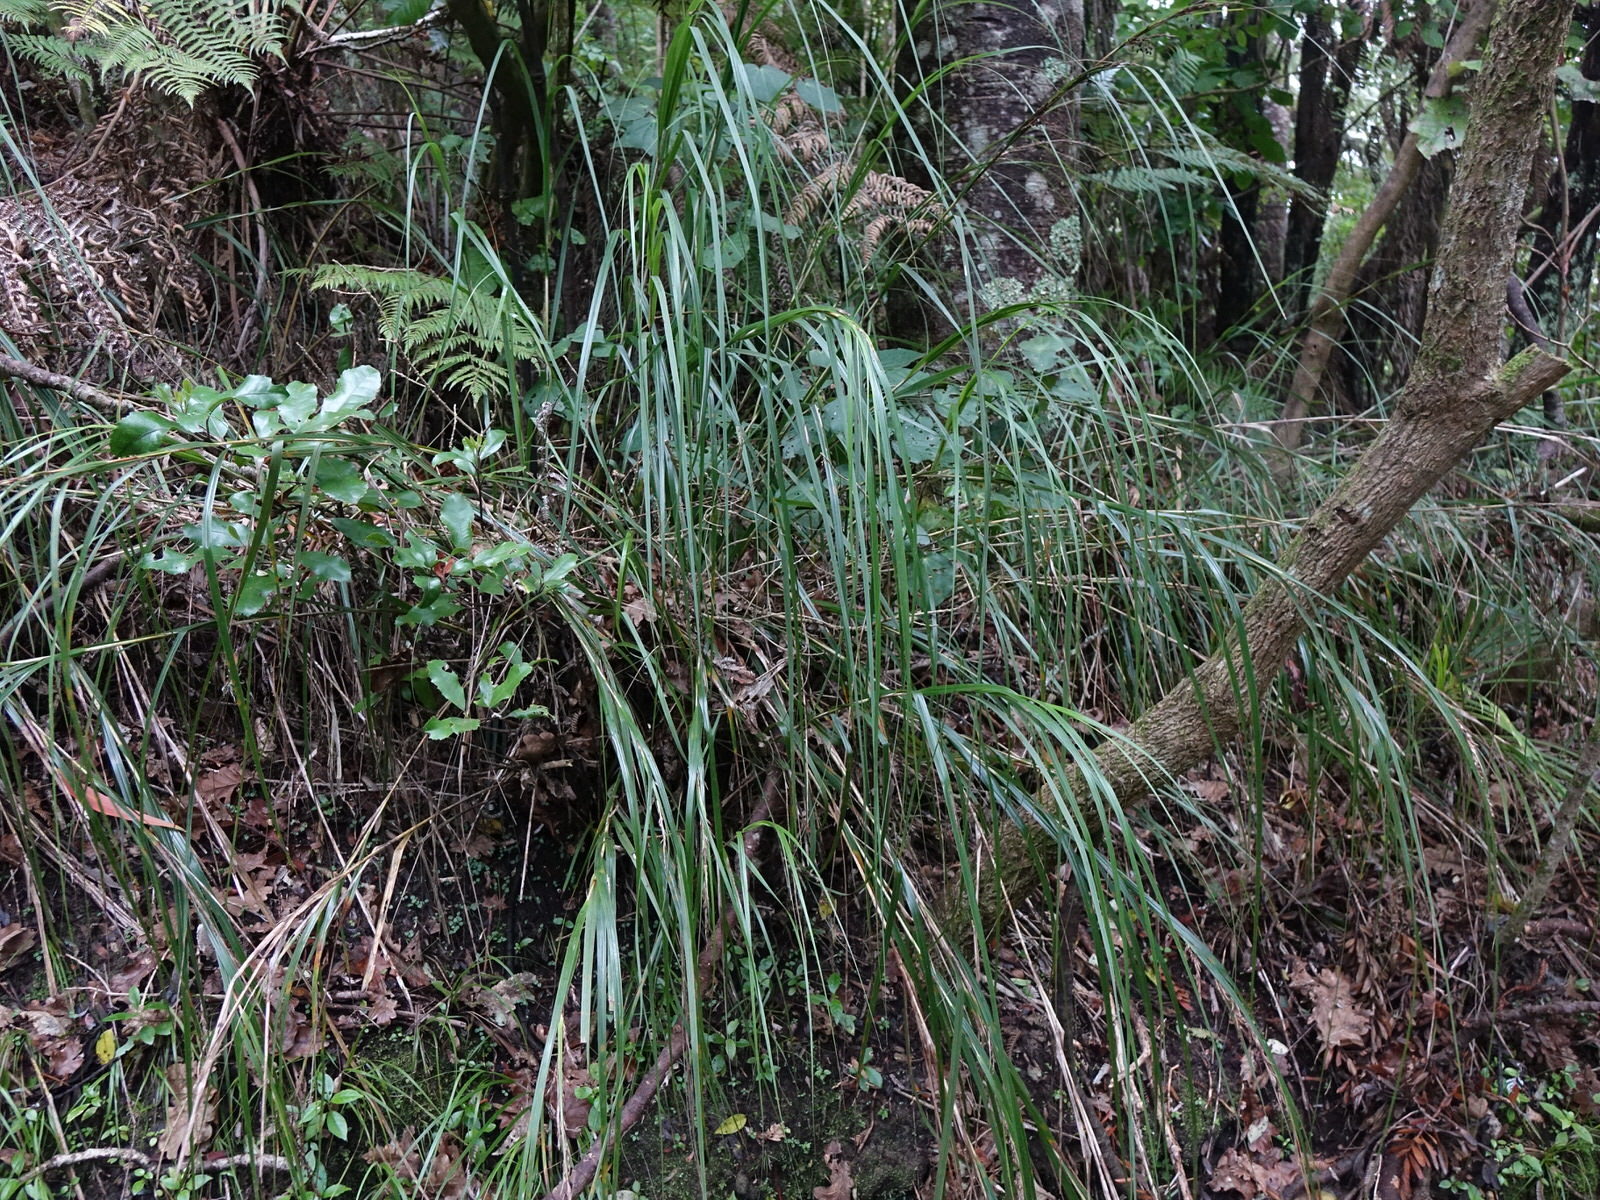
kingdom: Plantae
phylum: Tracheophyta
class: Liliopsida
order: Poales
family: Cyperaceae
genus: Gahnia
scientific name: Gahnia lacera
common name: Sawsedge
